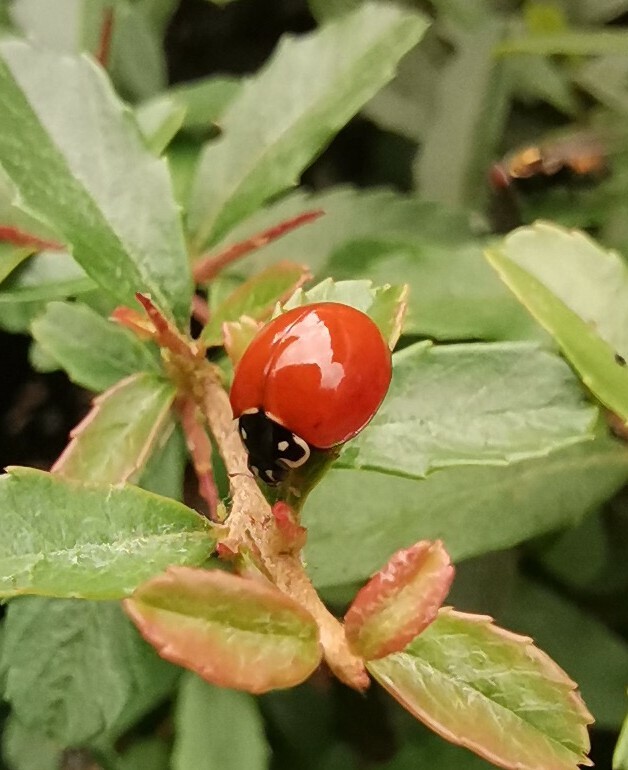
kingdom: Animalia
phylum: Arthropoda
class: Insecta
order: Coleoptera
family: Coccinellidae
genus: Cycloneda
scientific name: Cycloneda sanguinea
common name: Ladybird beetle
